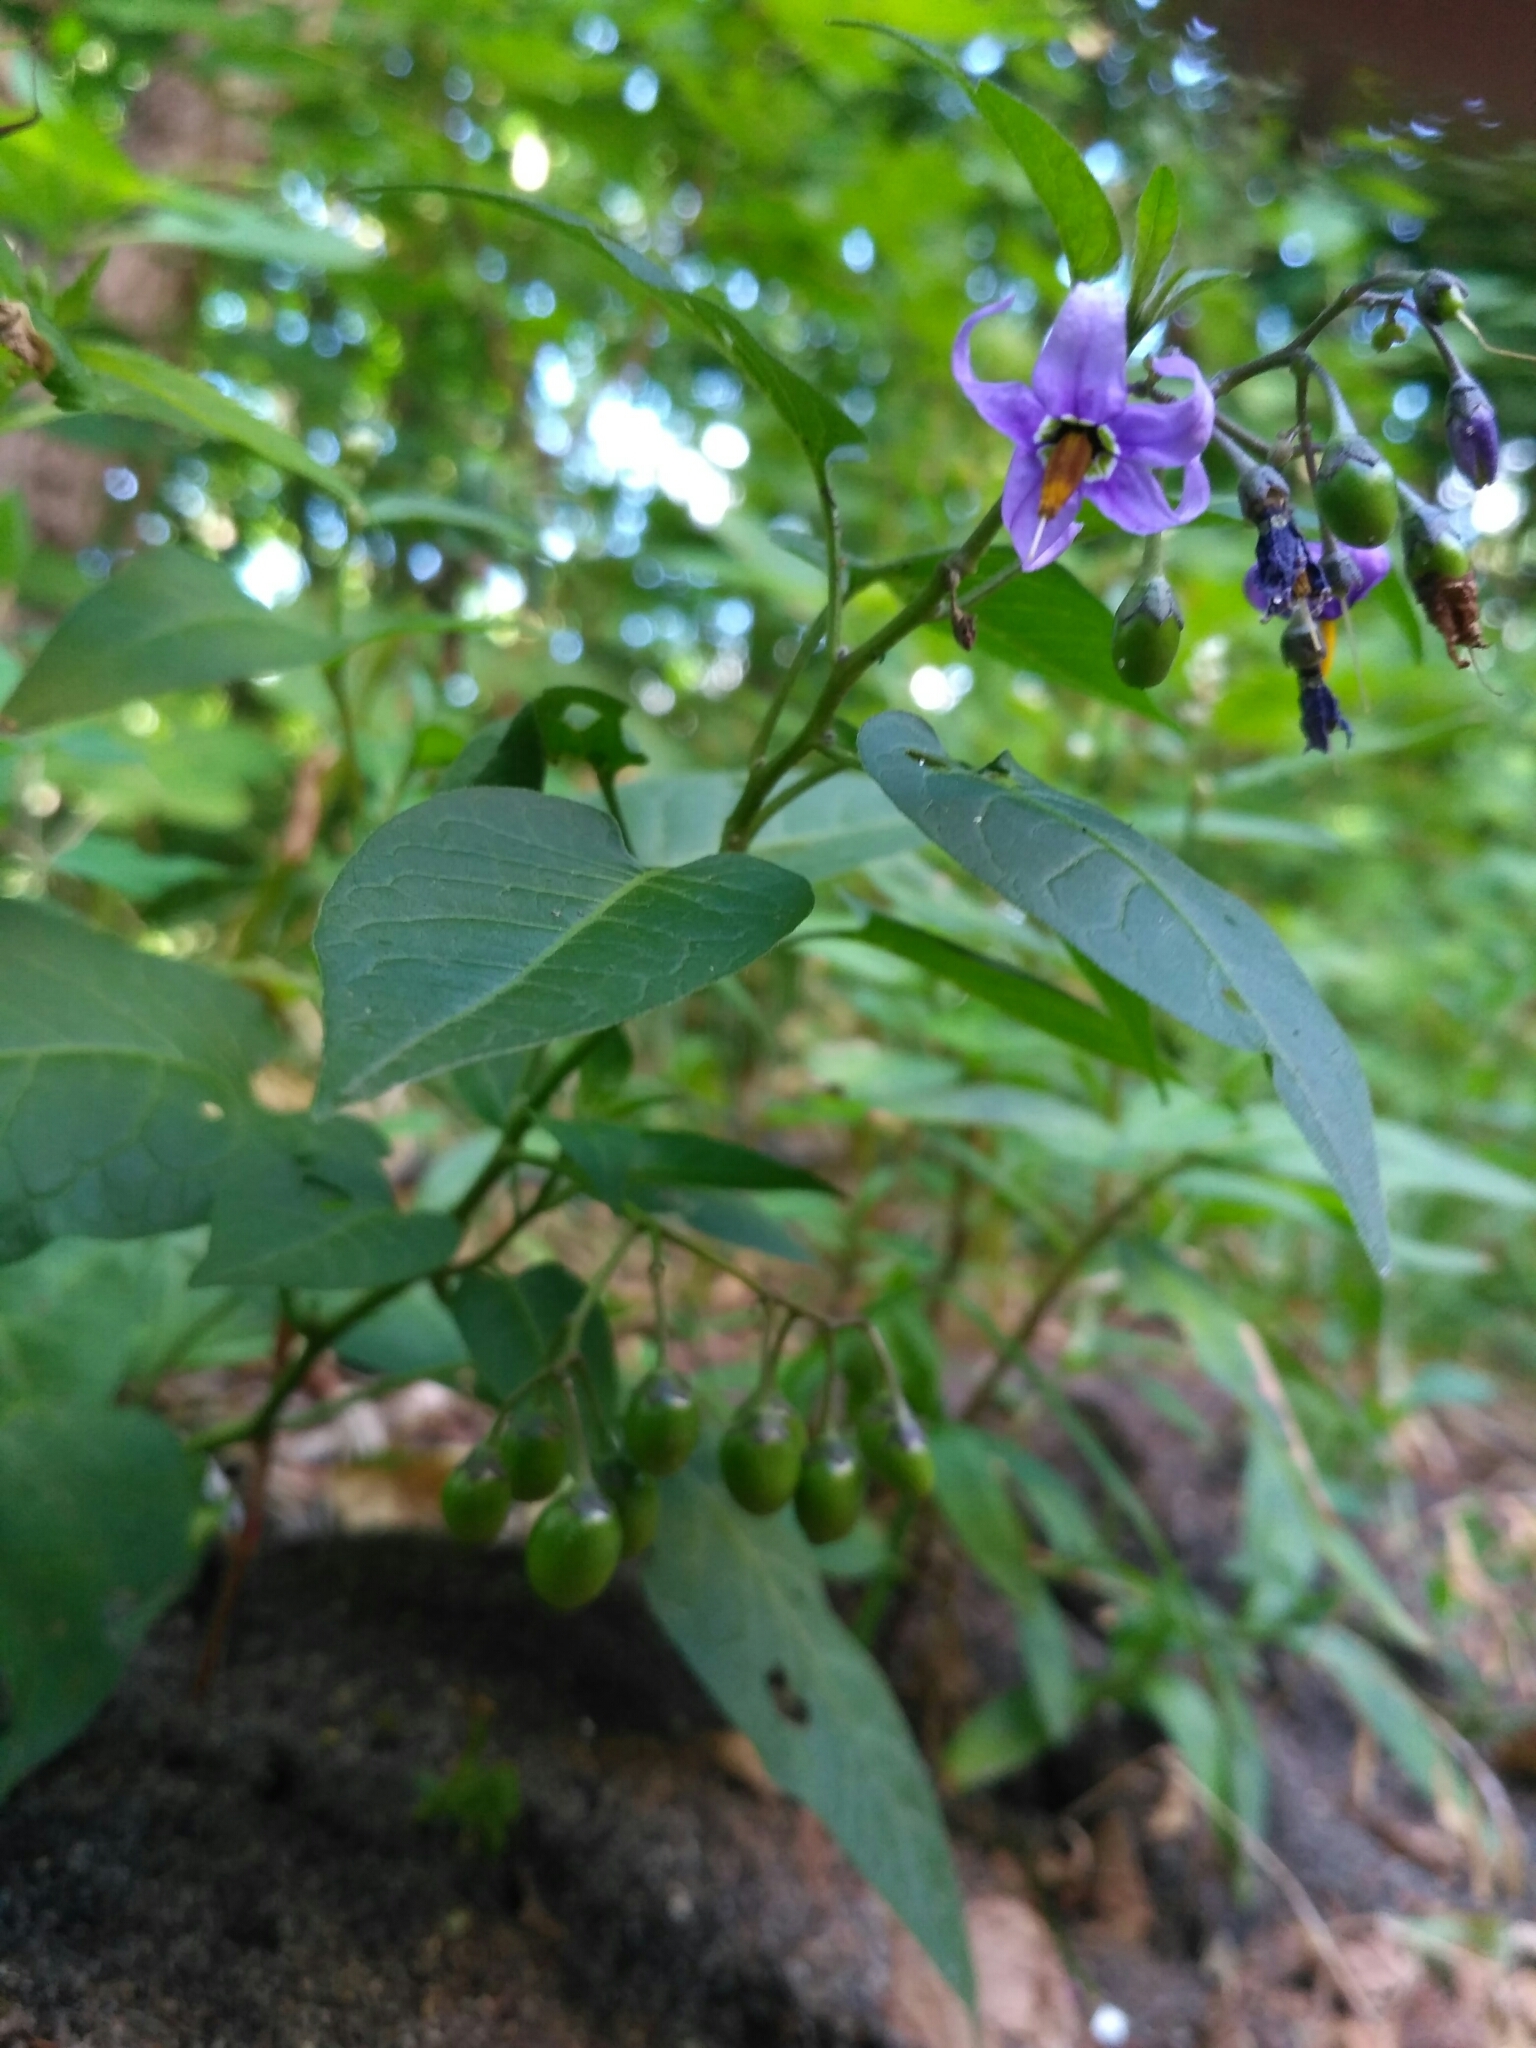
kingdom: Plantae
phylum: Tracheophyta
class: Magnoliopsida
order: Solanales
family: Solanaceae
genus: Solanum
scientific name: Solanum dulcamara
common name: Climbing nightshade
